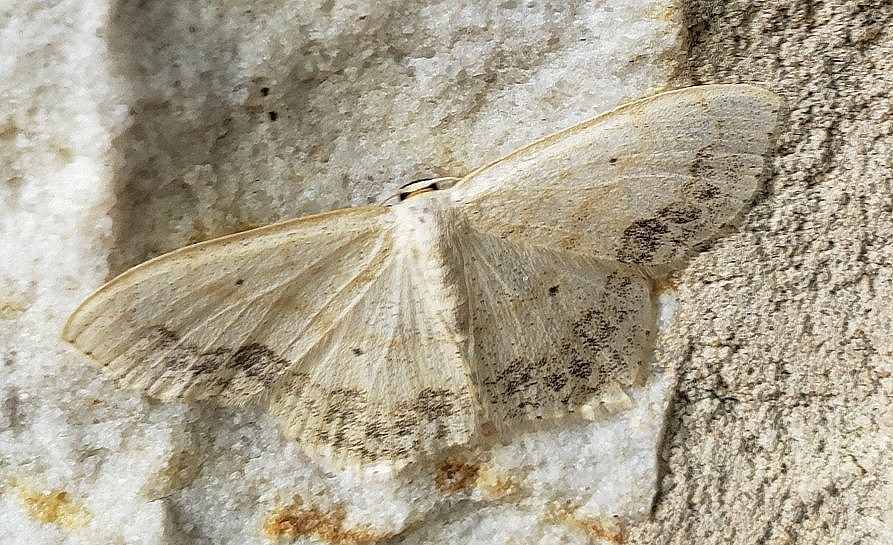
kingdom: Animalia
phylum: Arthropoda
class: Insecta
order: Lepidoptera
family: Geometridae
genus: Scopula
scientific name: Scopula limboundata
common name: Large lace border
